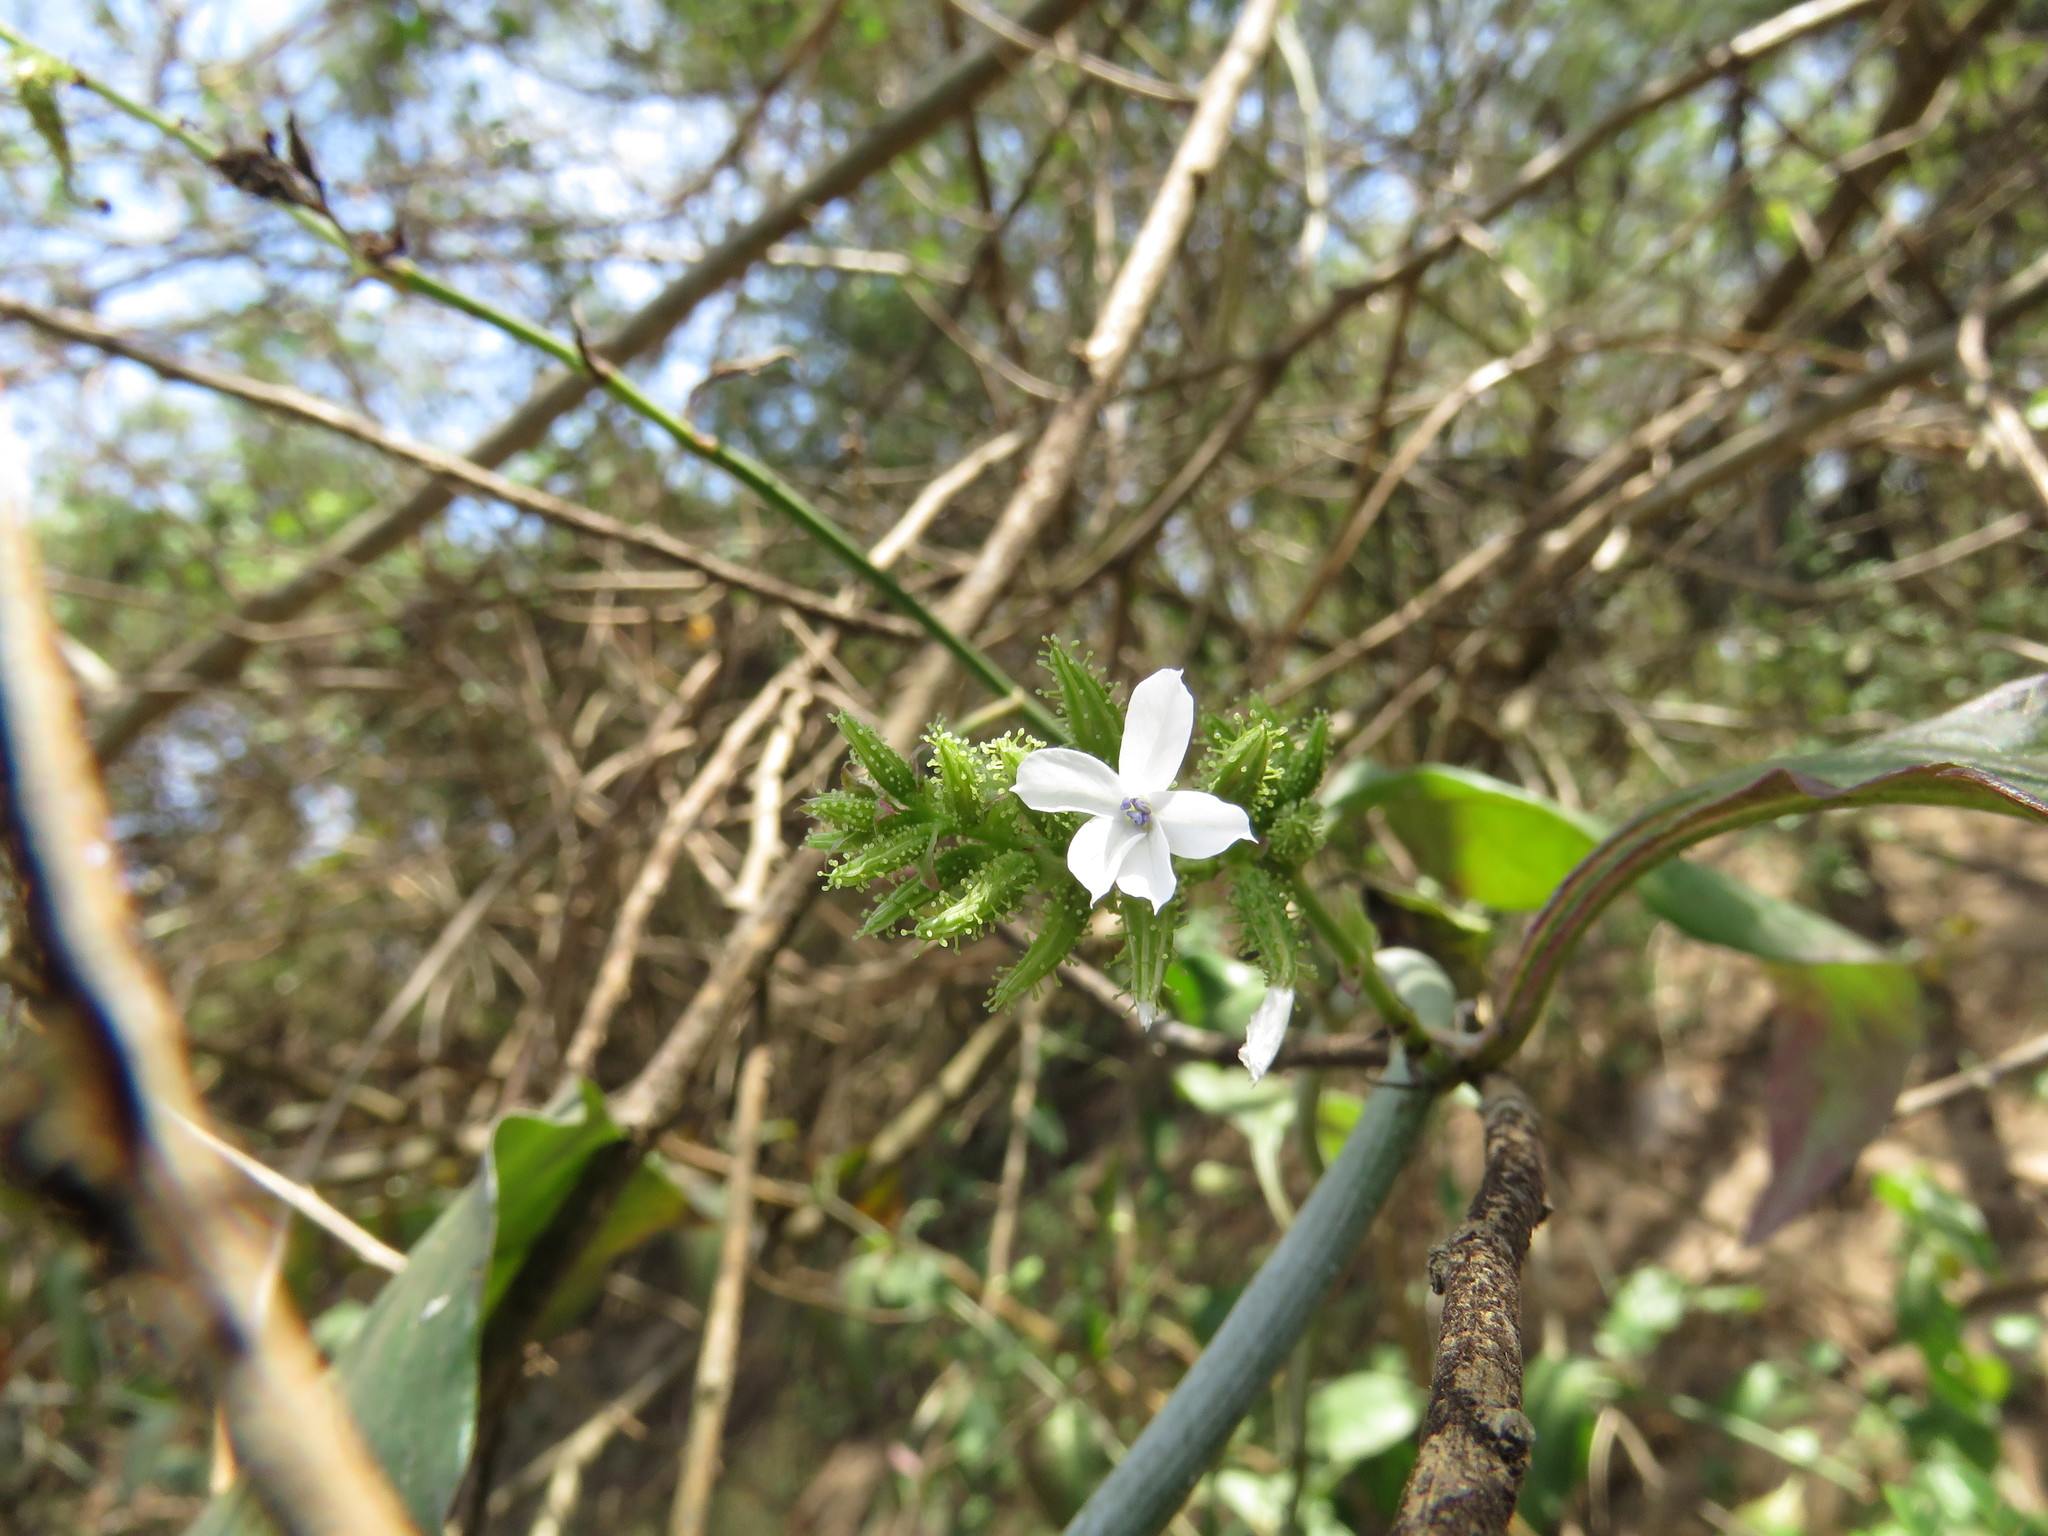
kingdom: Plantae
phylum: Tracheophyta
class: Magnoliopsida
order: Caryophyllales
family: Plumbaginaceae
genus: Plumbago
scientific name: Plumbago zeylanica
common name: Doctorbush
